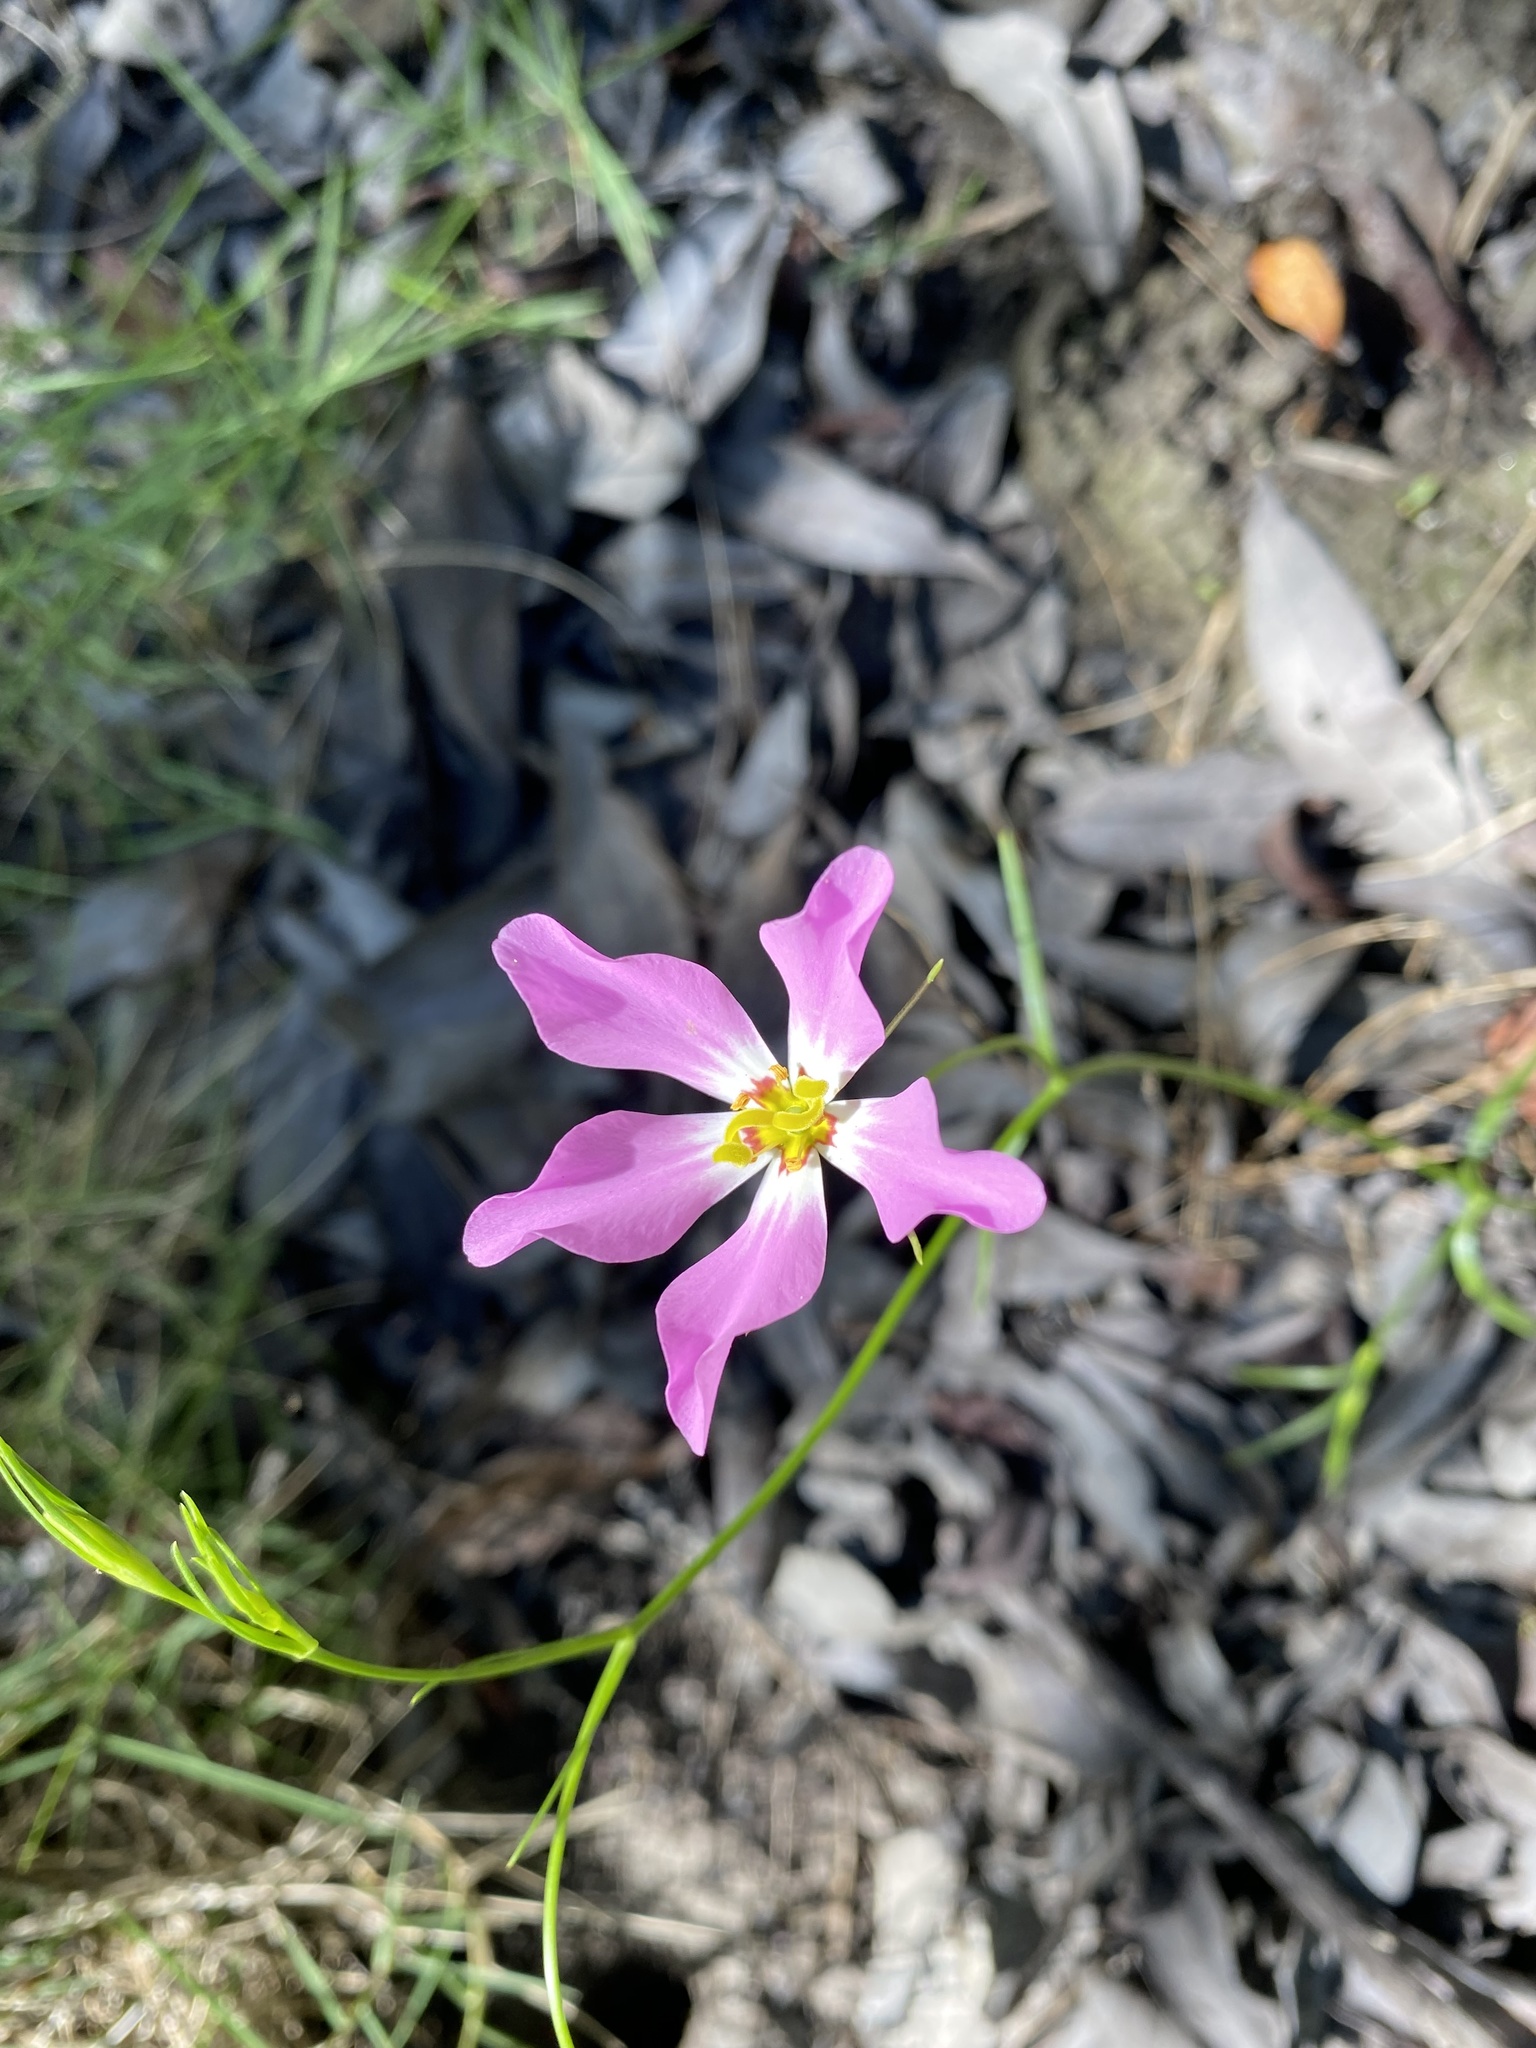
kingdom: Plantae
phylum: Tracheophyta
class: Magnoliopsida
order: Gentianales
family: Gentianaceae
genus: Sabatia
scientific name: Sabatia stellaris
